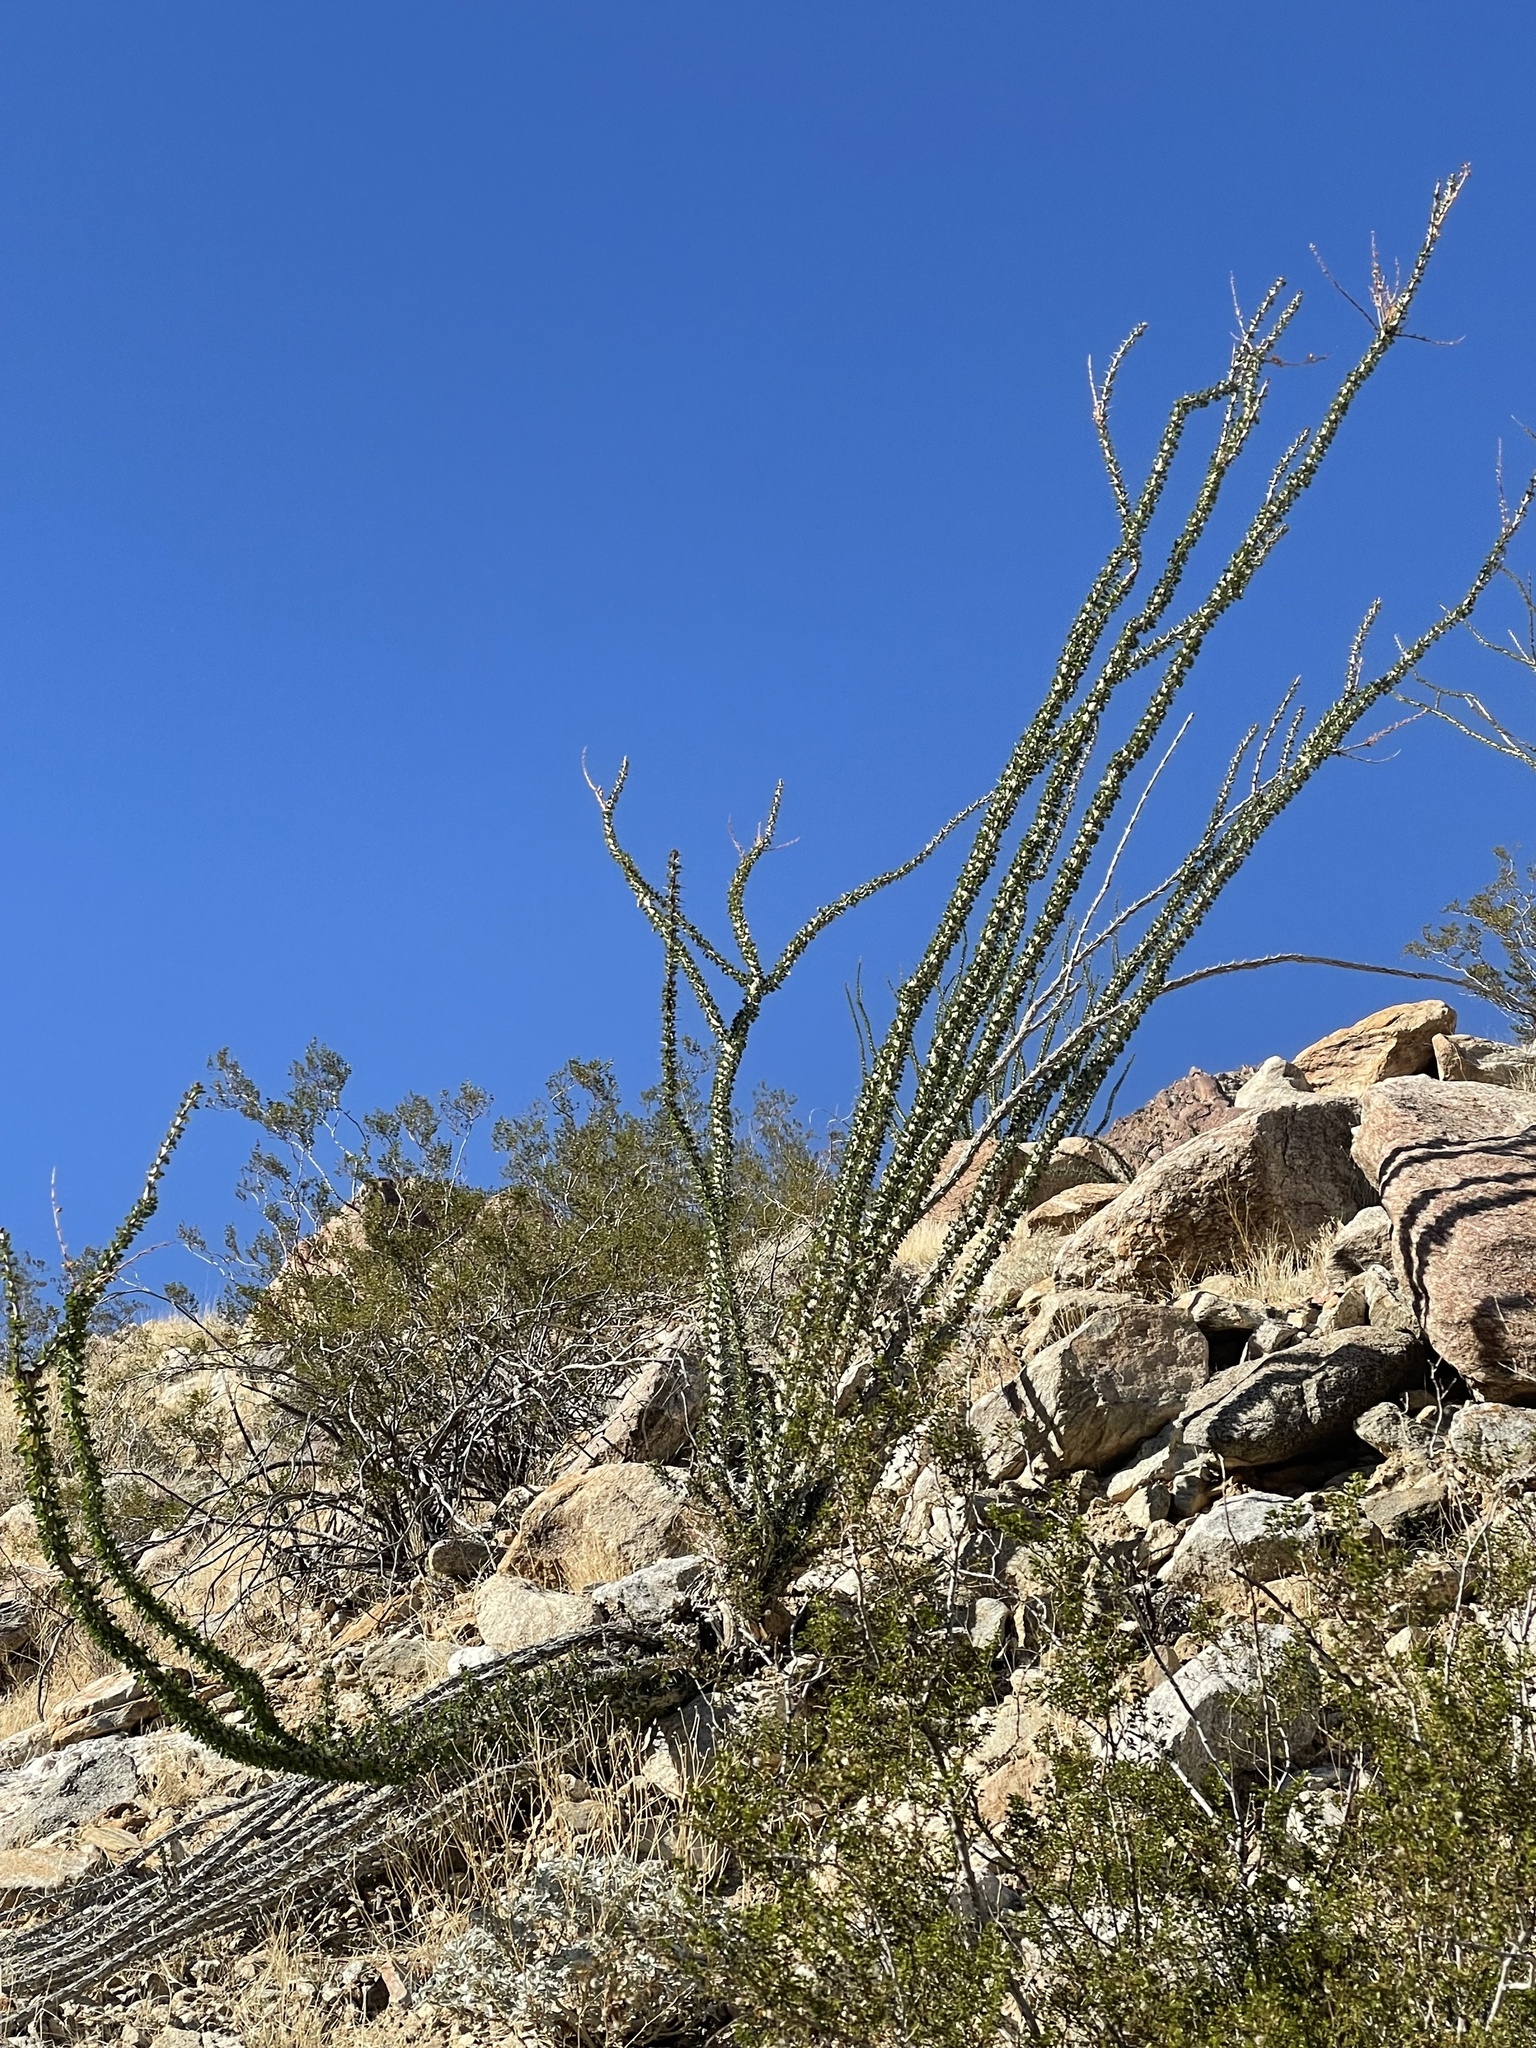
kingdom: Plantae
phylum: Tracheophyta
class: Magnoliopsida
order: Ericales
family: Fouquieriaceae
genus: Fouquieria
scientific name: Fouquieria splendens
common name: Vine-cactus
